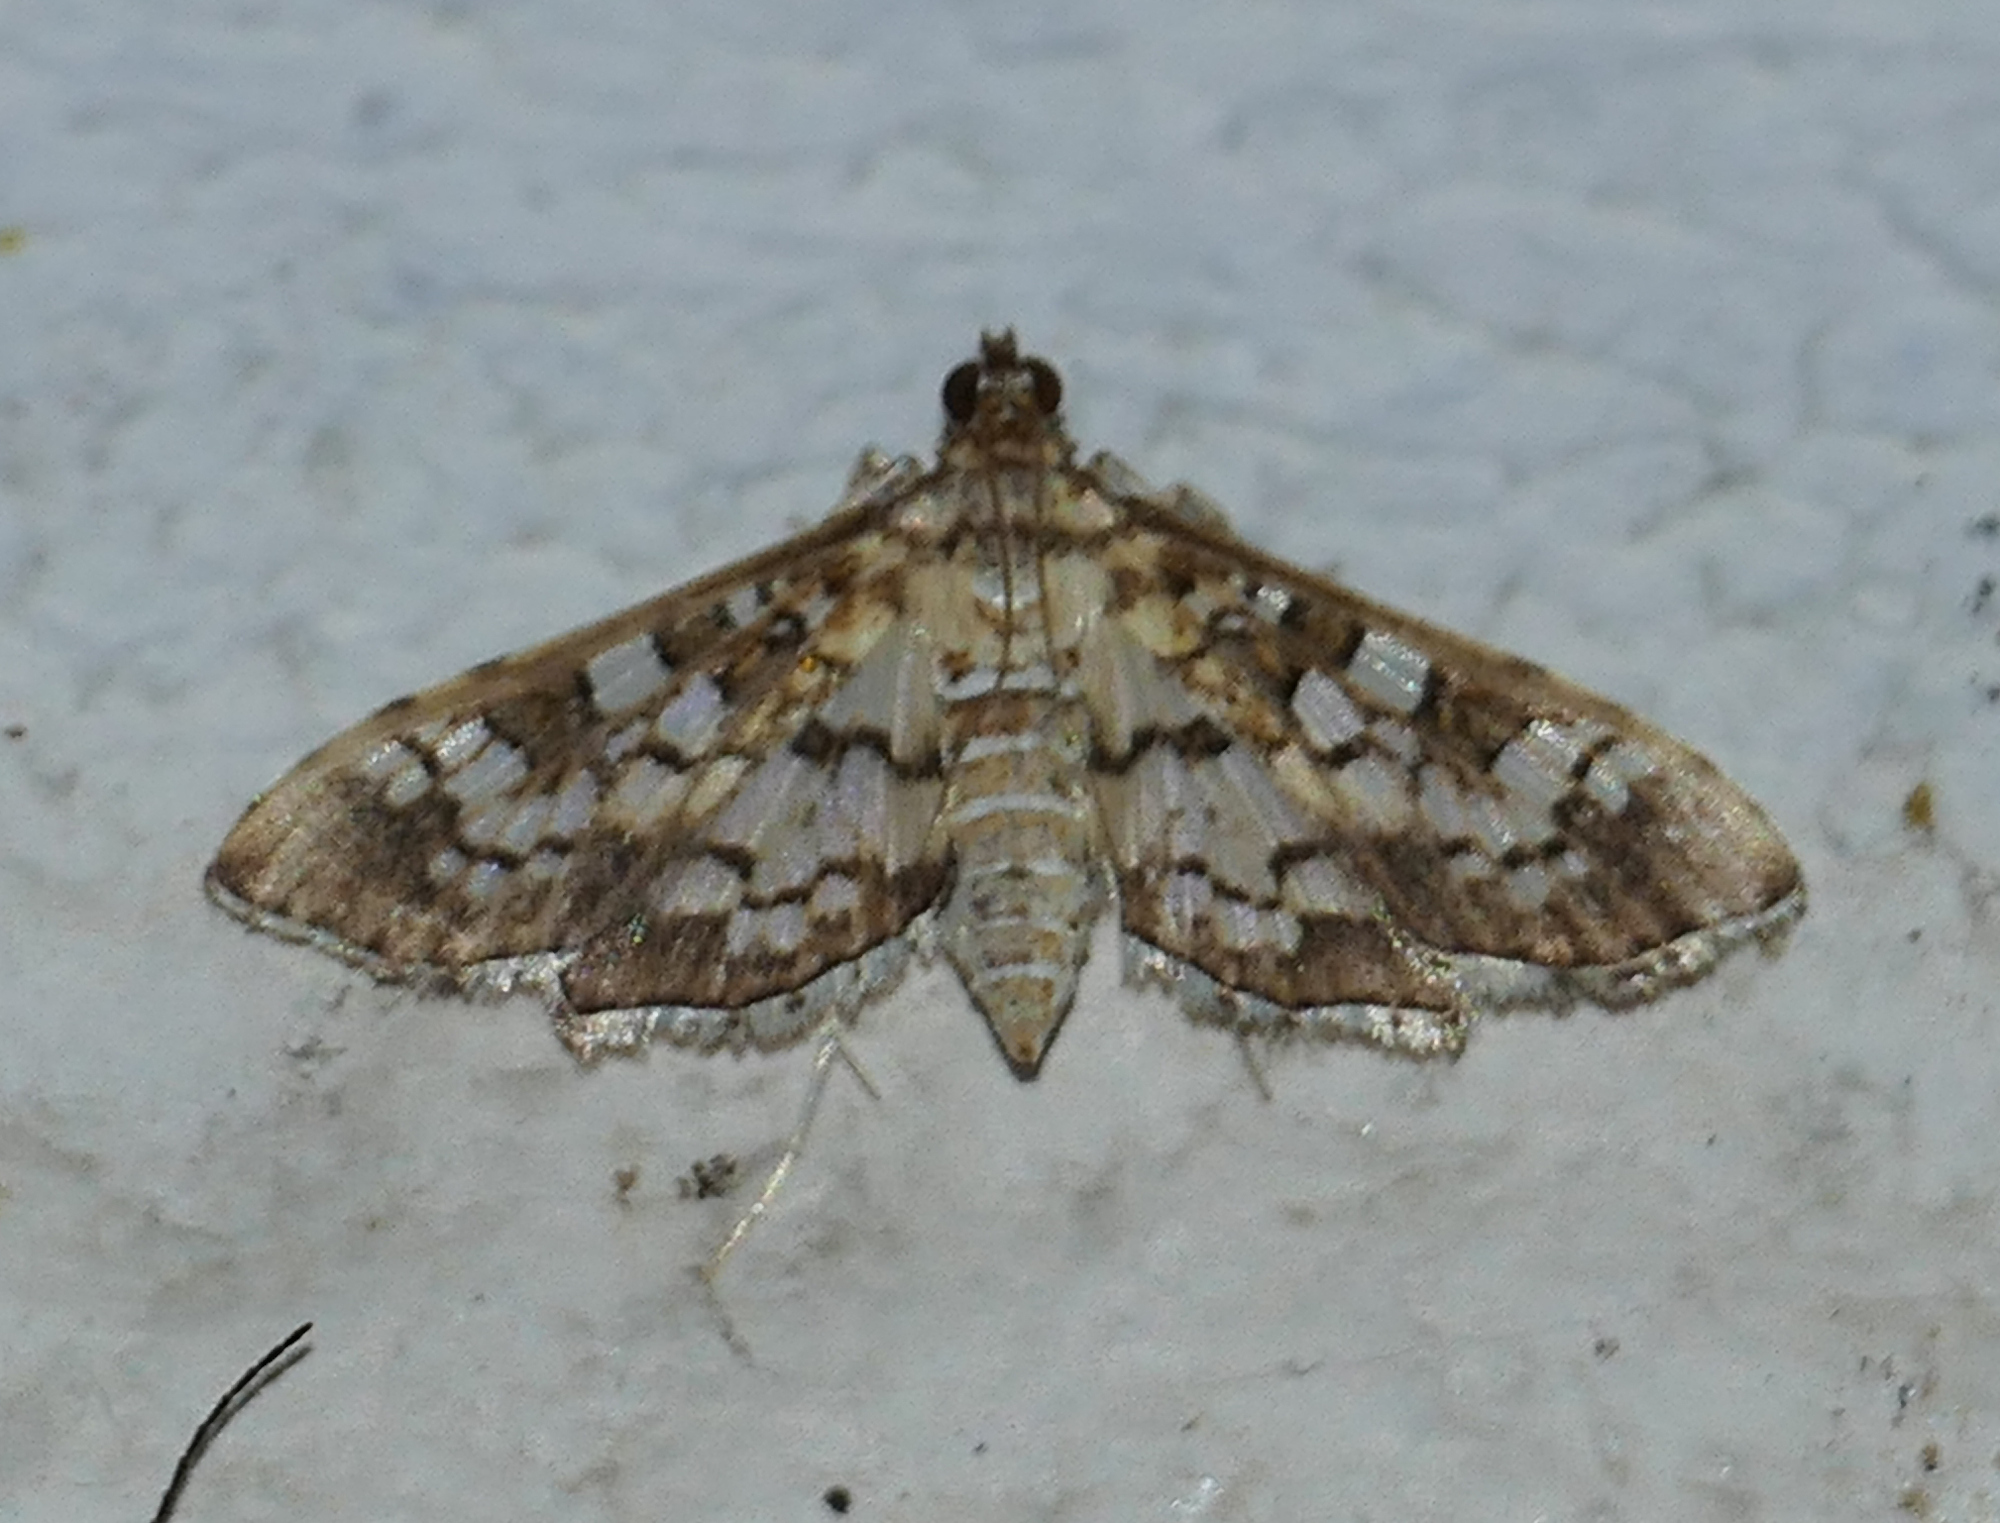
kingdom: Animalia
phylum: Arthropoda
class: Insecta
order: Lepidoptera
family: Crambidae
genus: Samea
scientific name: Samea ecclesialis
